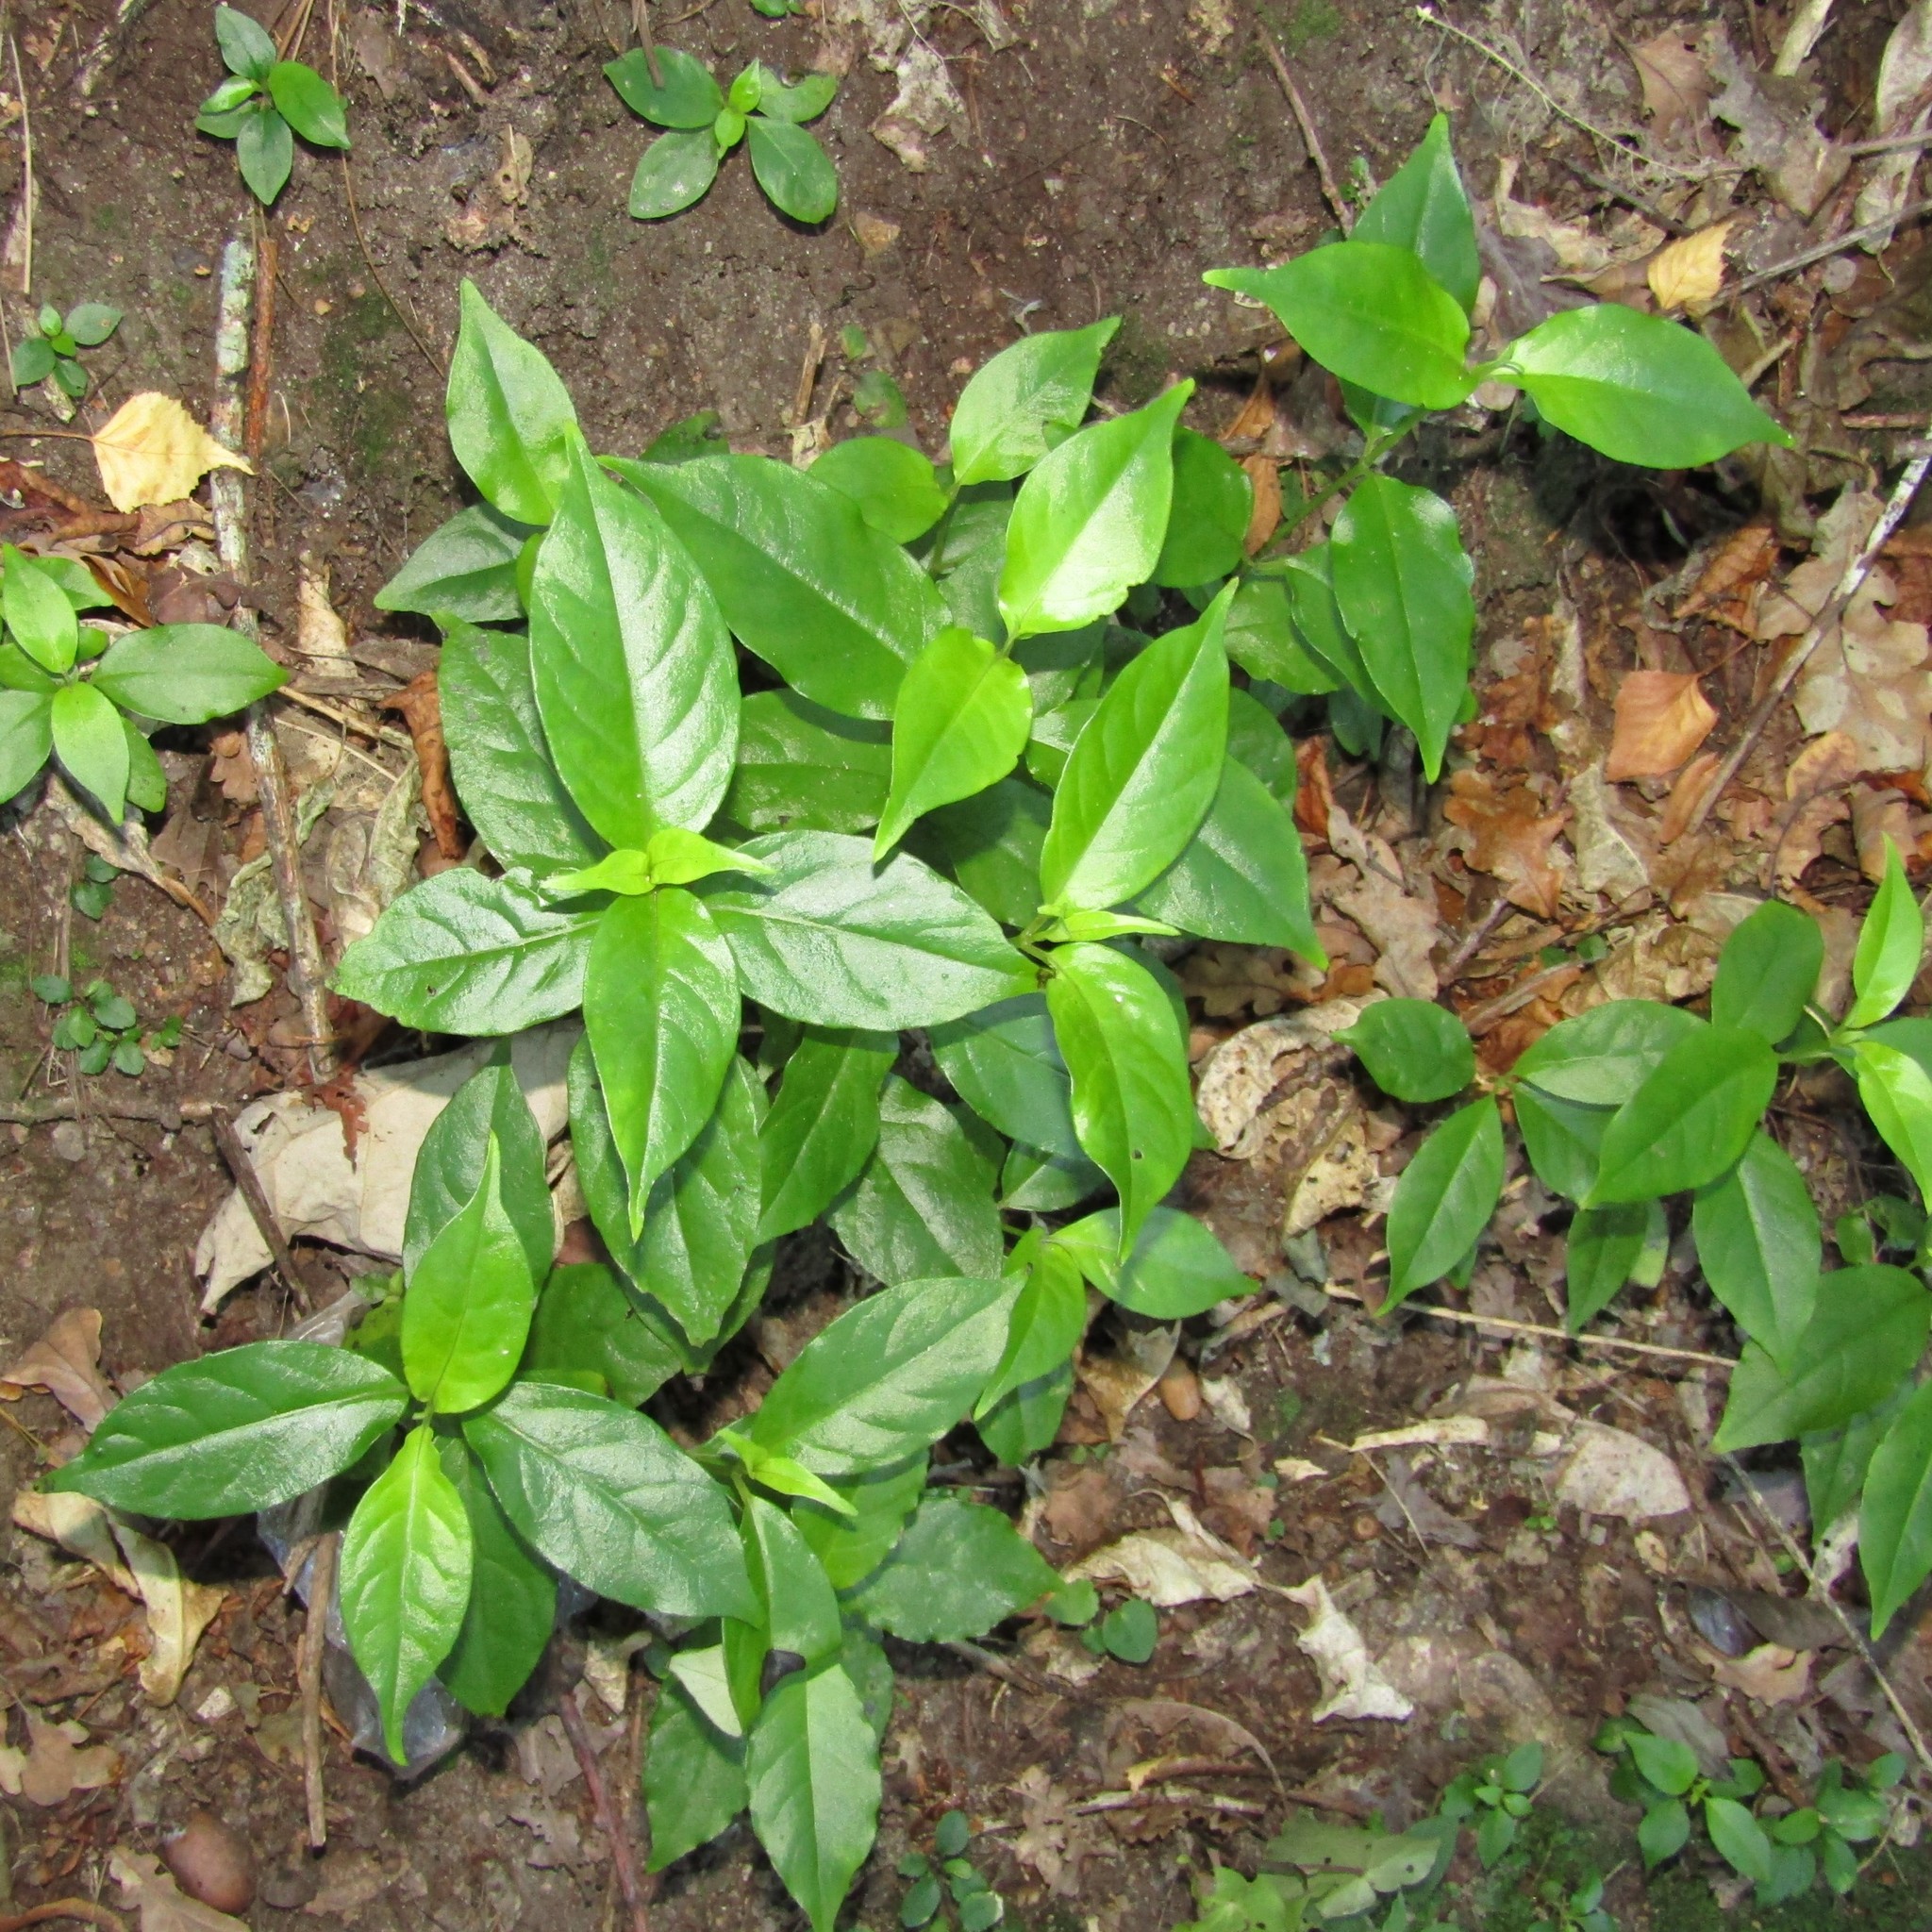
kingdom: Plantae
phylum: Tracheophyta
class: Magnoliopsida
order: Gentianales
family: Loganiaceae
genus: Geniostoma
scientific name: Geniostoma ligustrifolium
